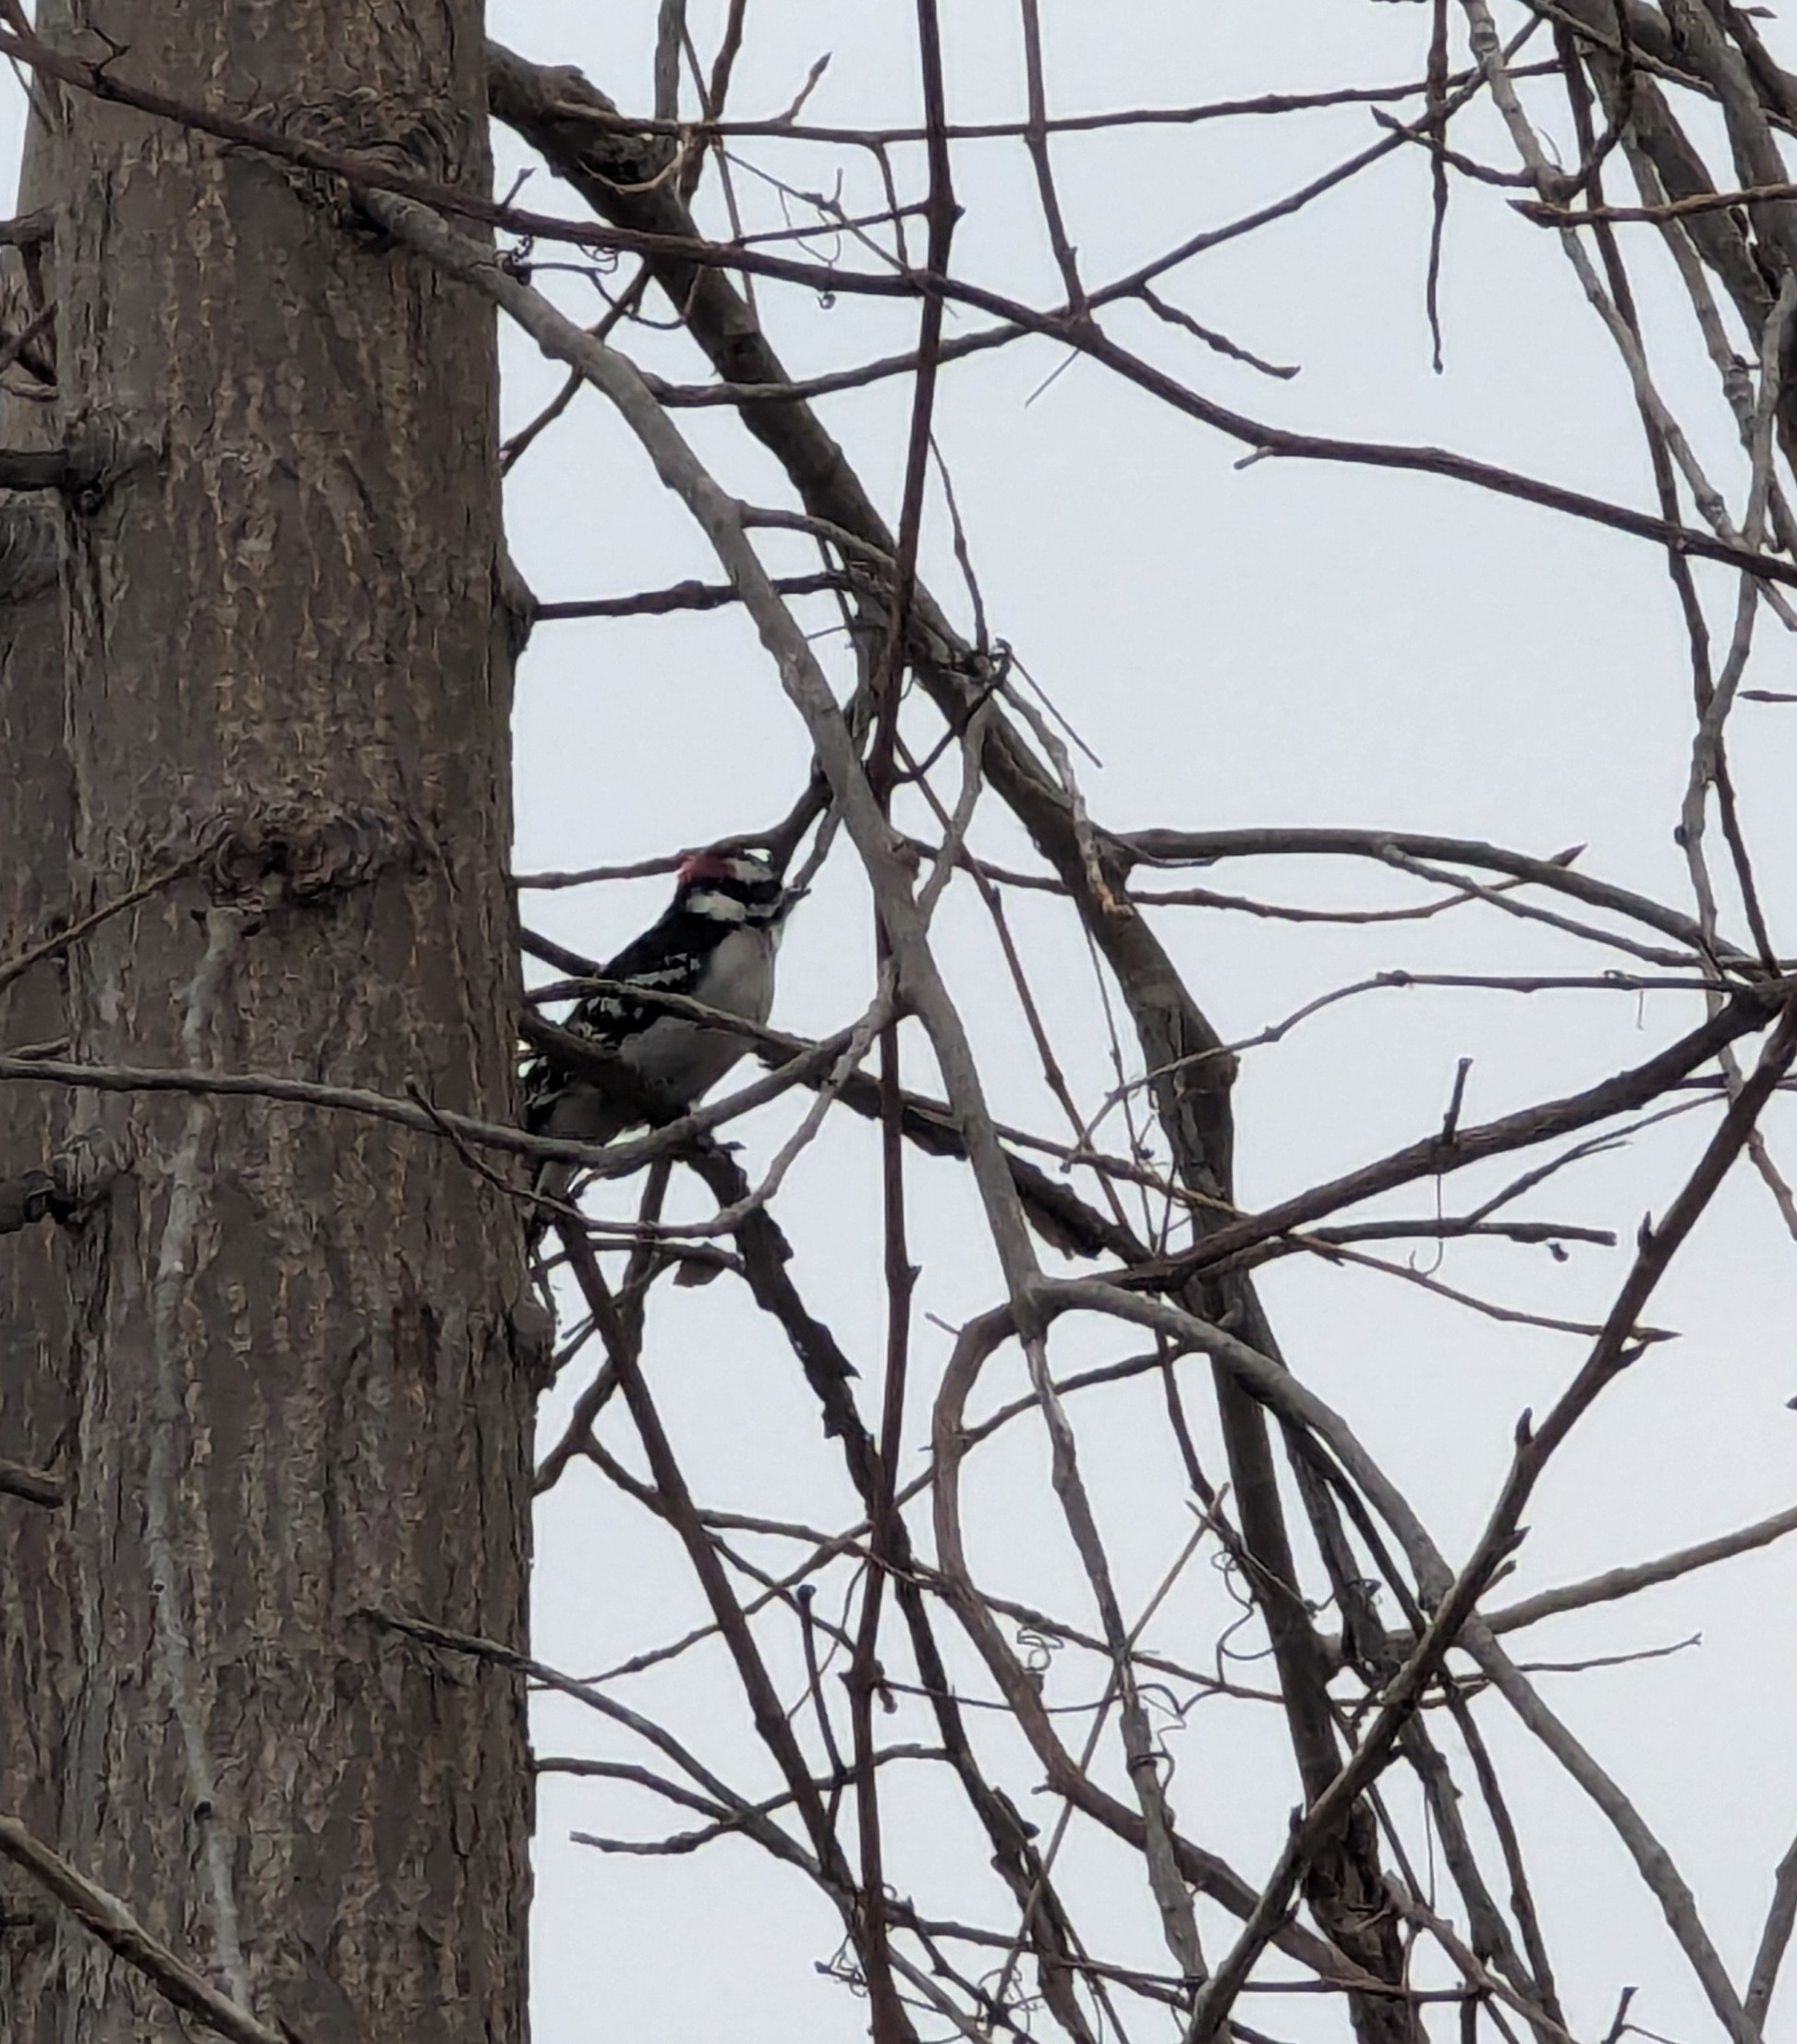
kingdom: Animalia
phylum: Chordata
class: Aves
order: Piciformes
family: Picidae
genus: Dryobates
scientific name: Dryobates pubescens
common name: Downy woodpecker
